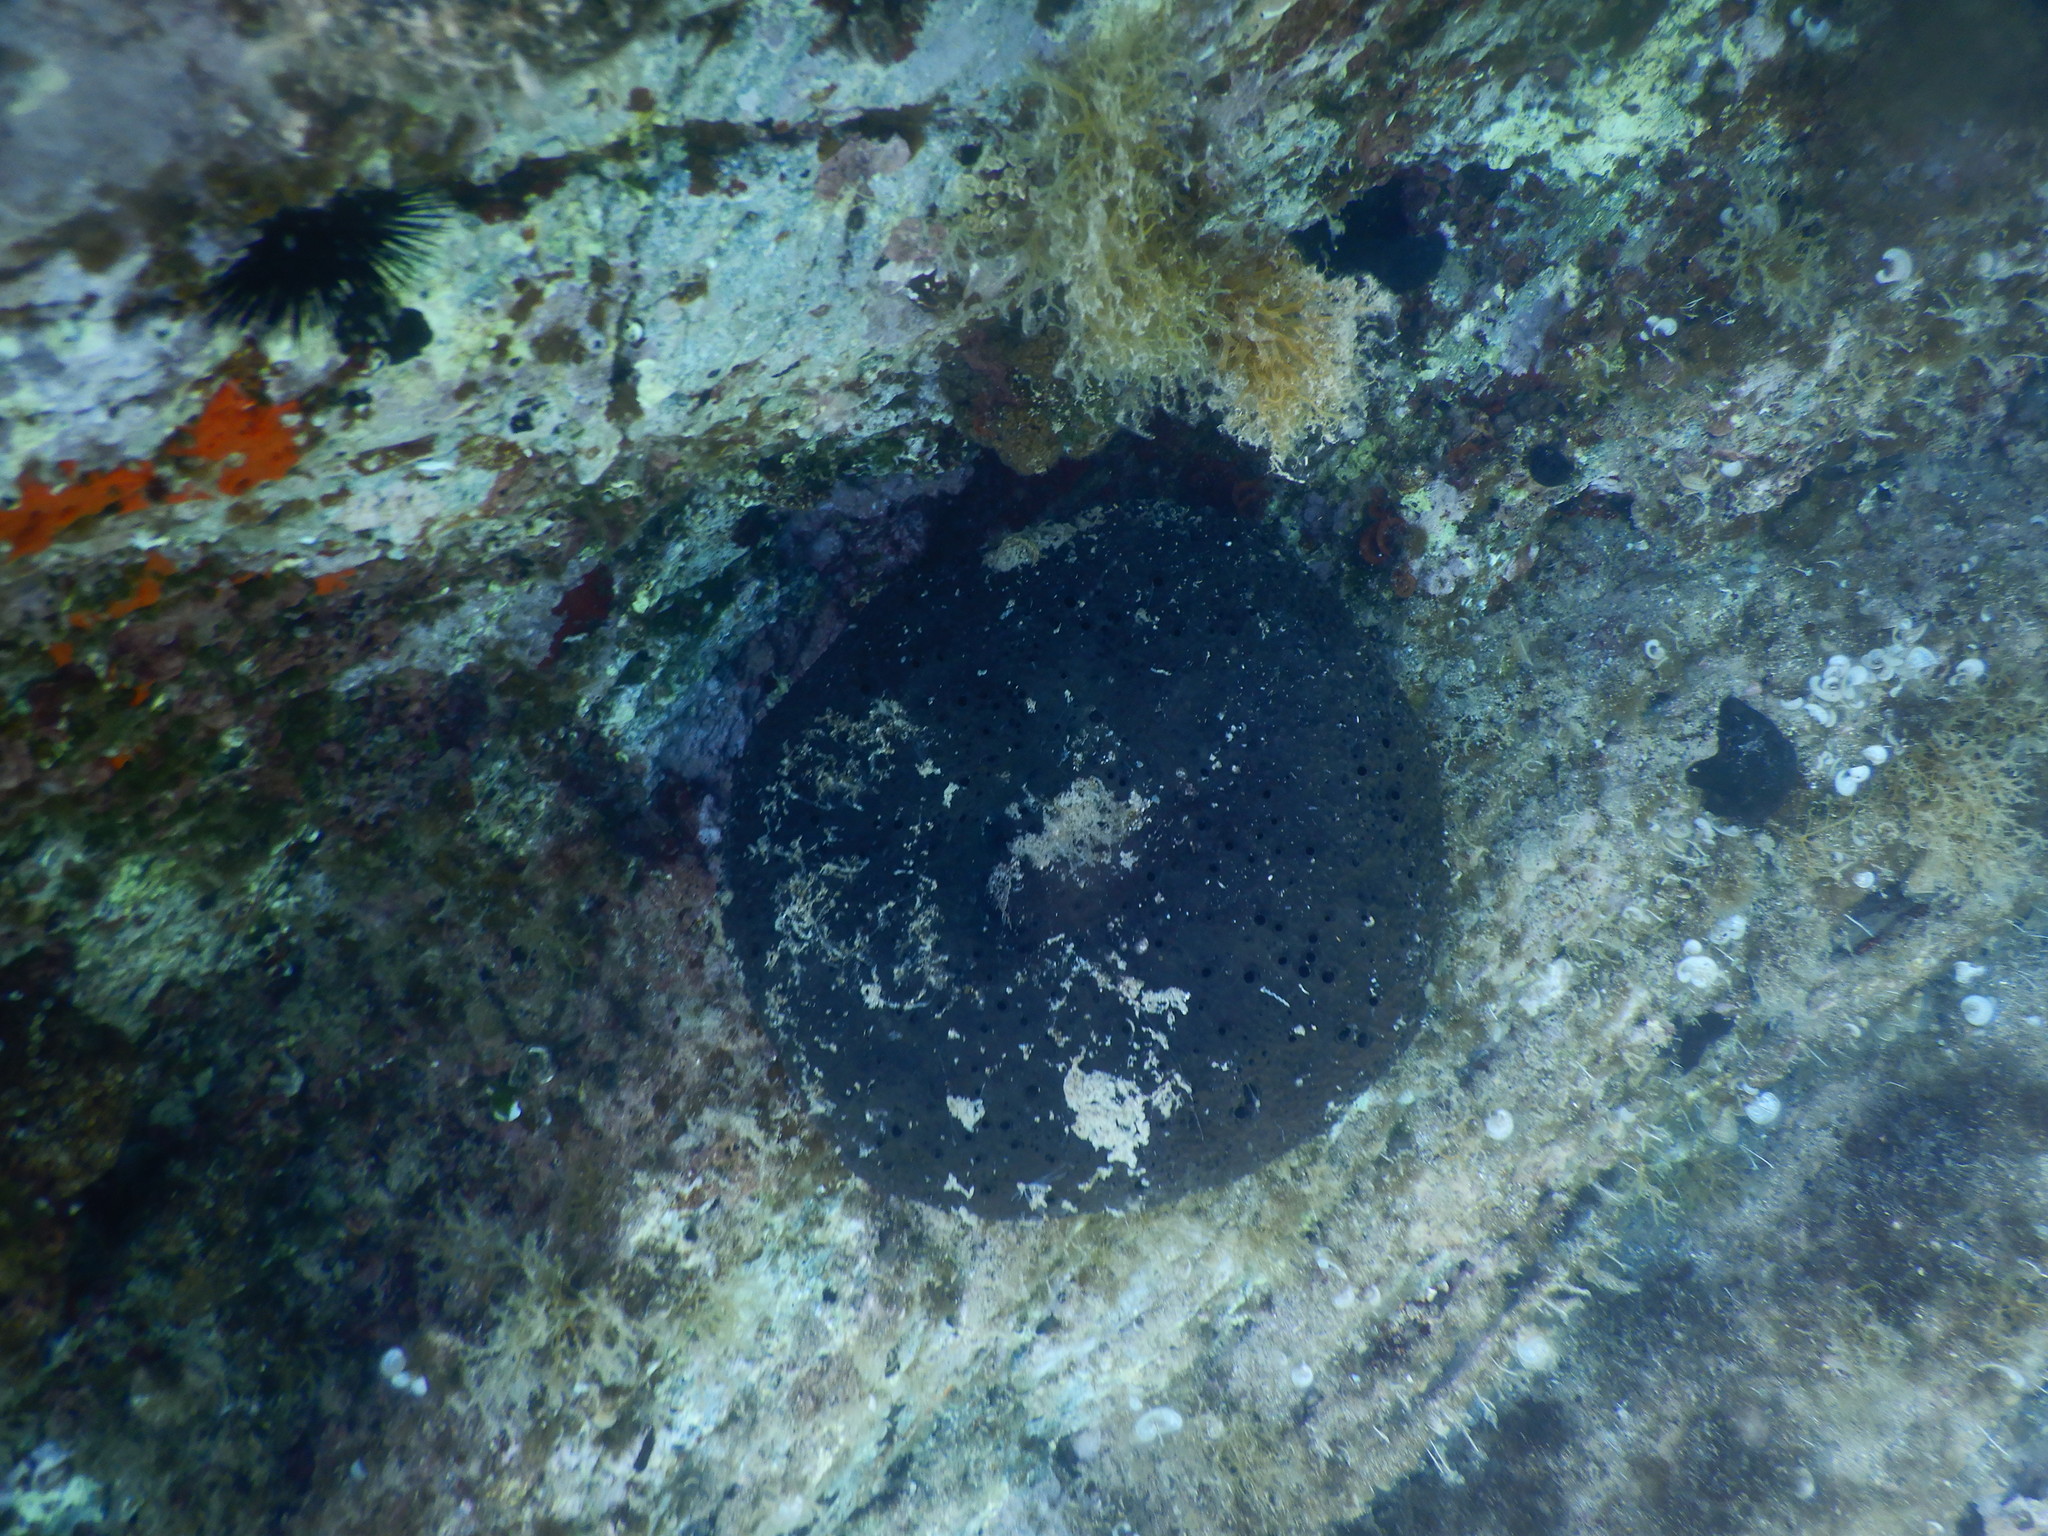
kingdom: Animalia
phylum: Porifera
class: Demospongiae
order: Dictyoceratida
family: Irciniidae
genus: Sarcotragus
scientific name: Sarcotragus spinosulus
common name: Black leather sponge
